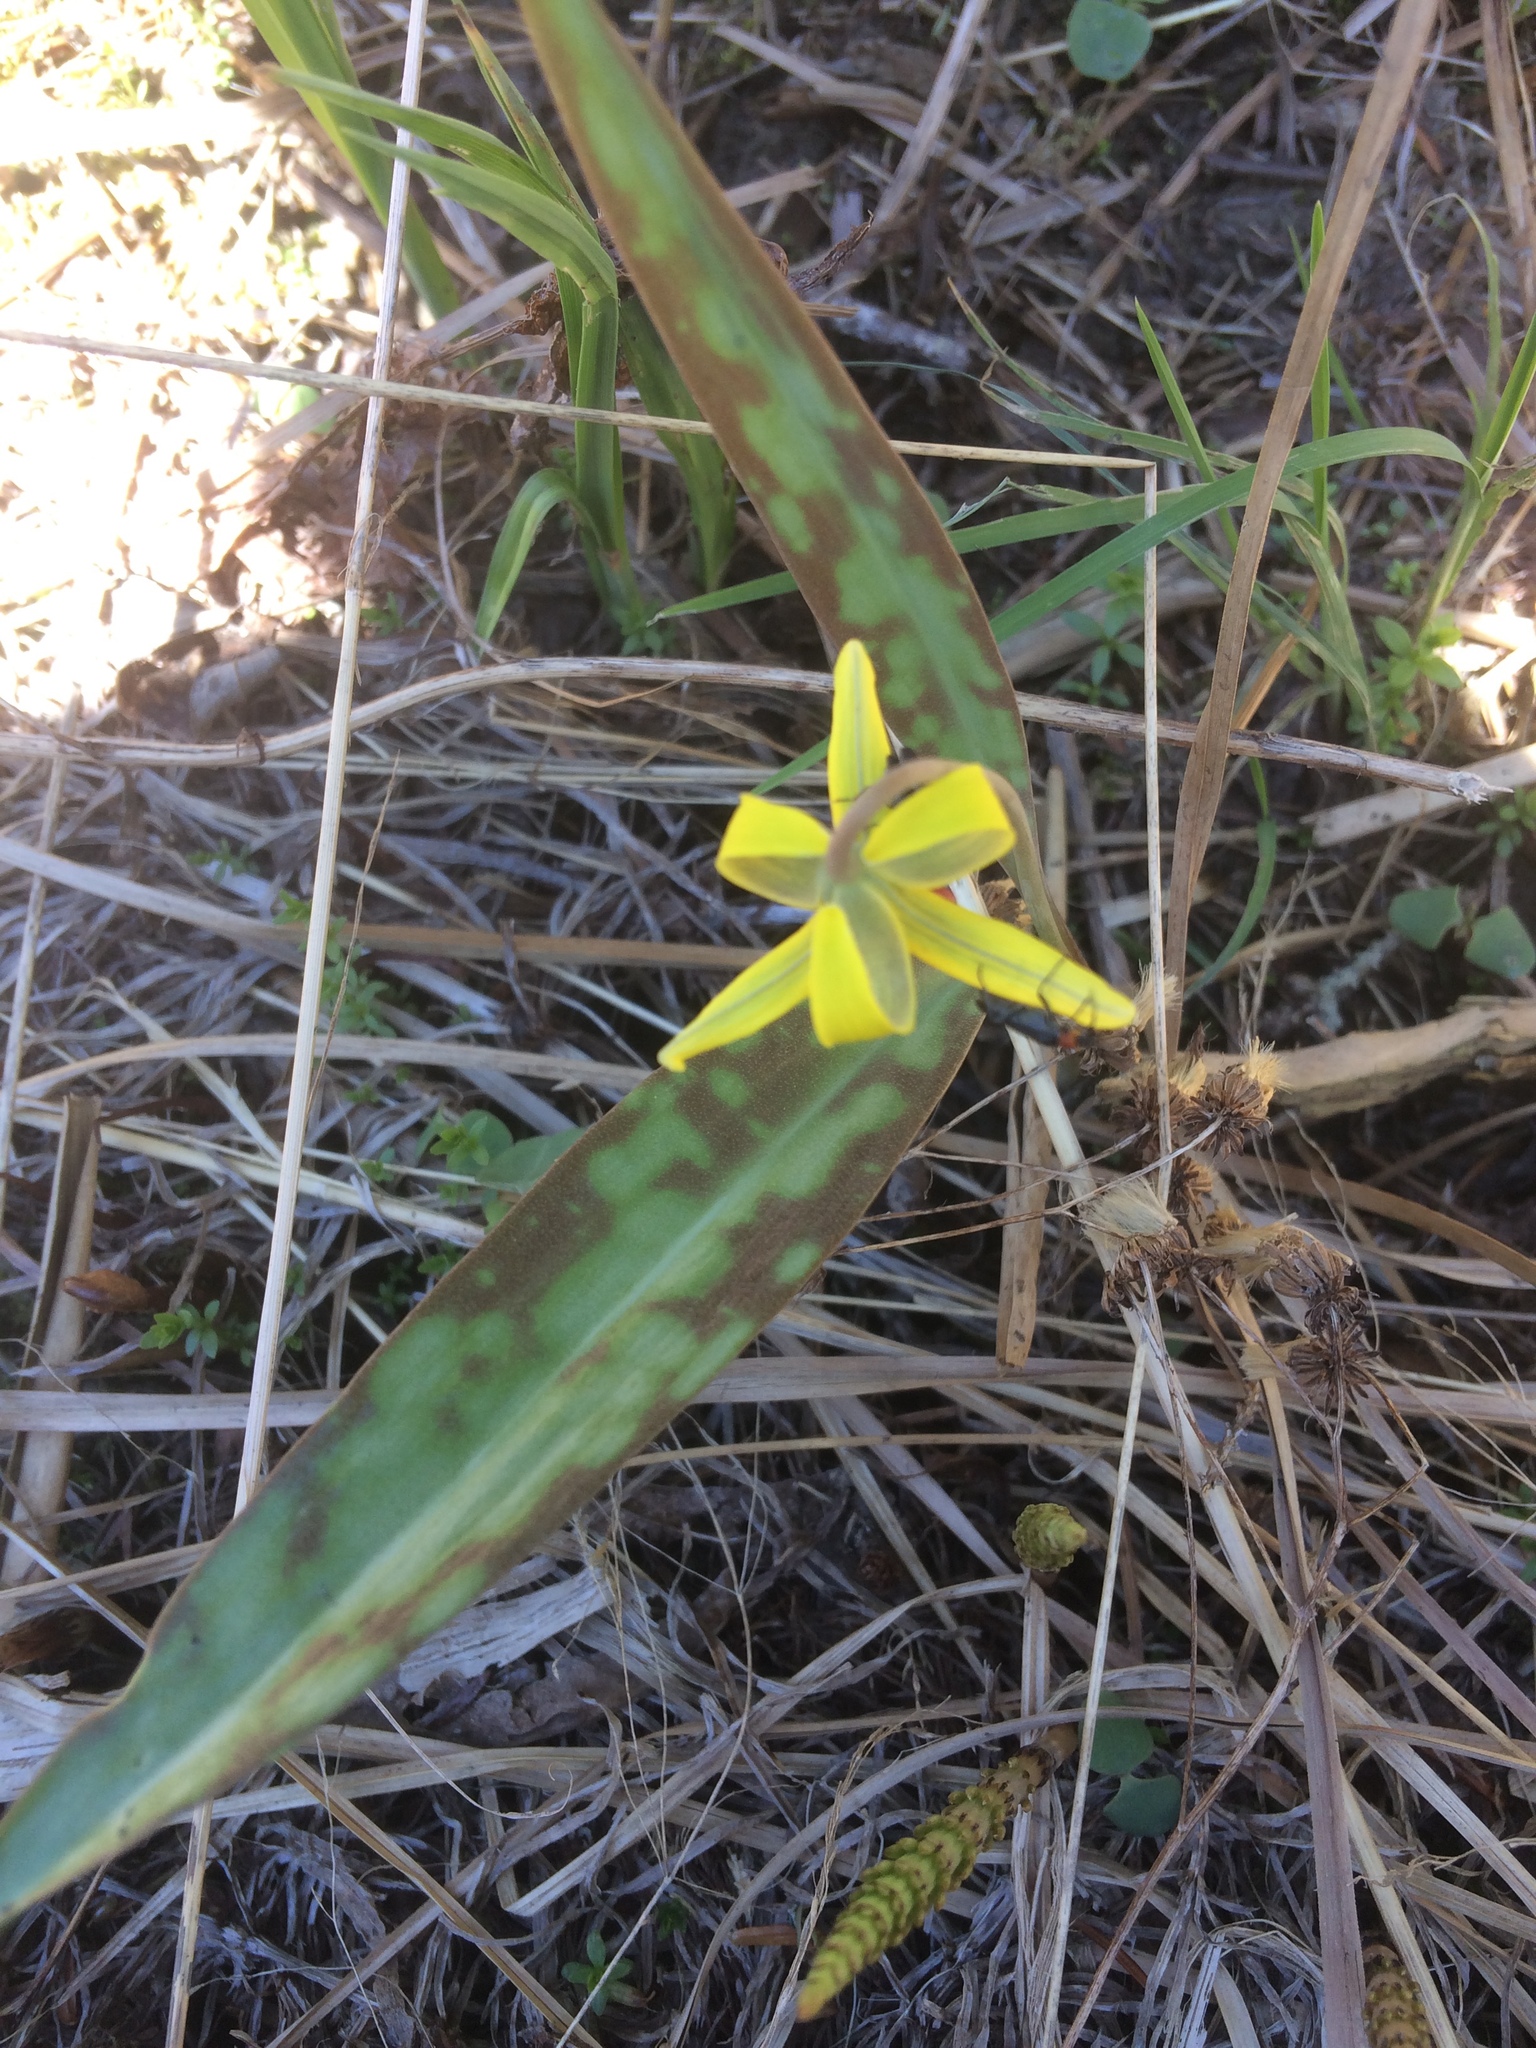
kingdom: Plantae
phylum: Tracheophyta
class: Liliopsida
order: Liliales
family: Liliaceae
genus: Erythronium
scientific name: Erythronium americanum
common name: Yellow adder's-tongue
